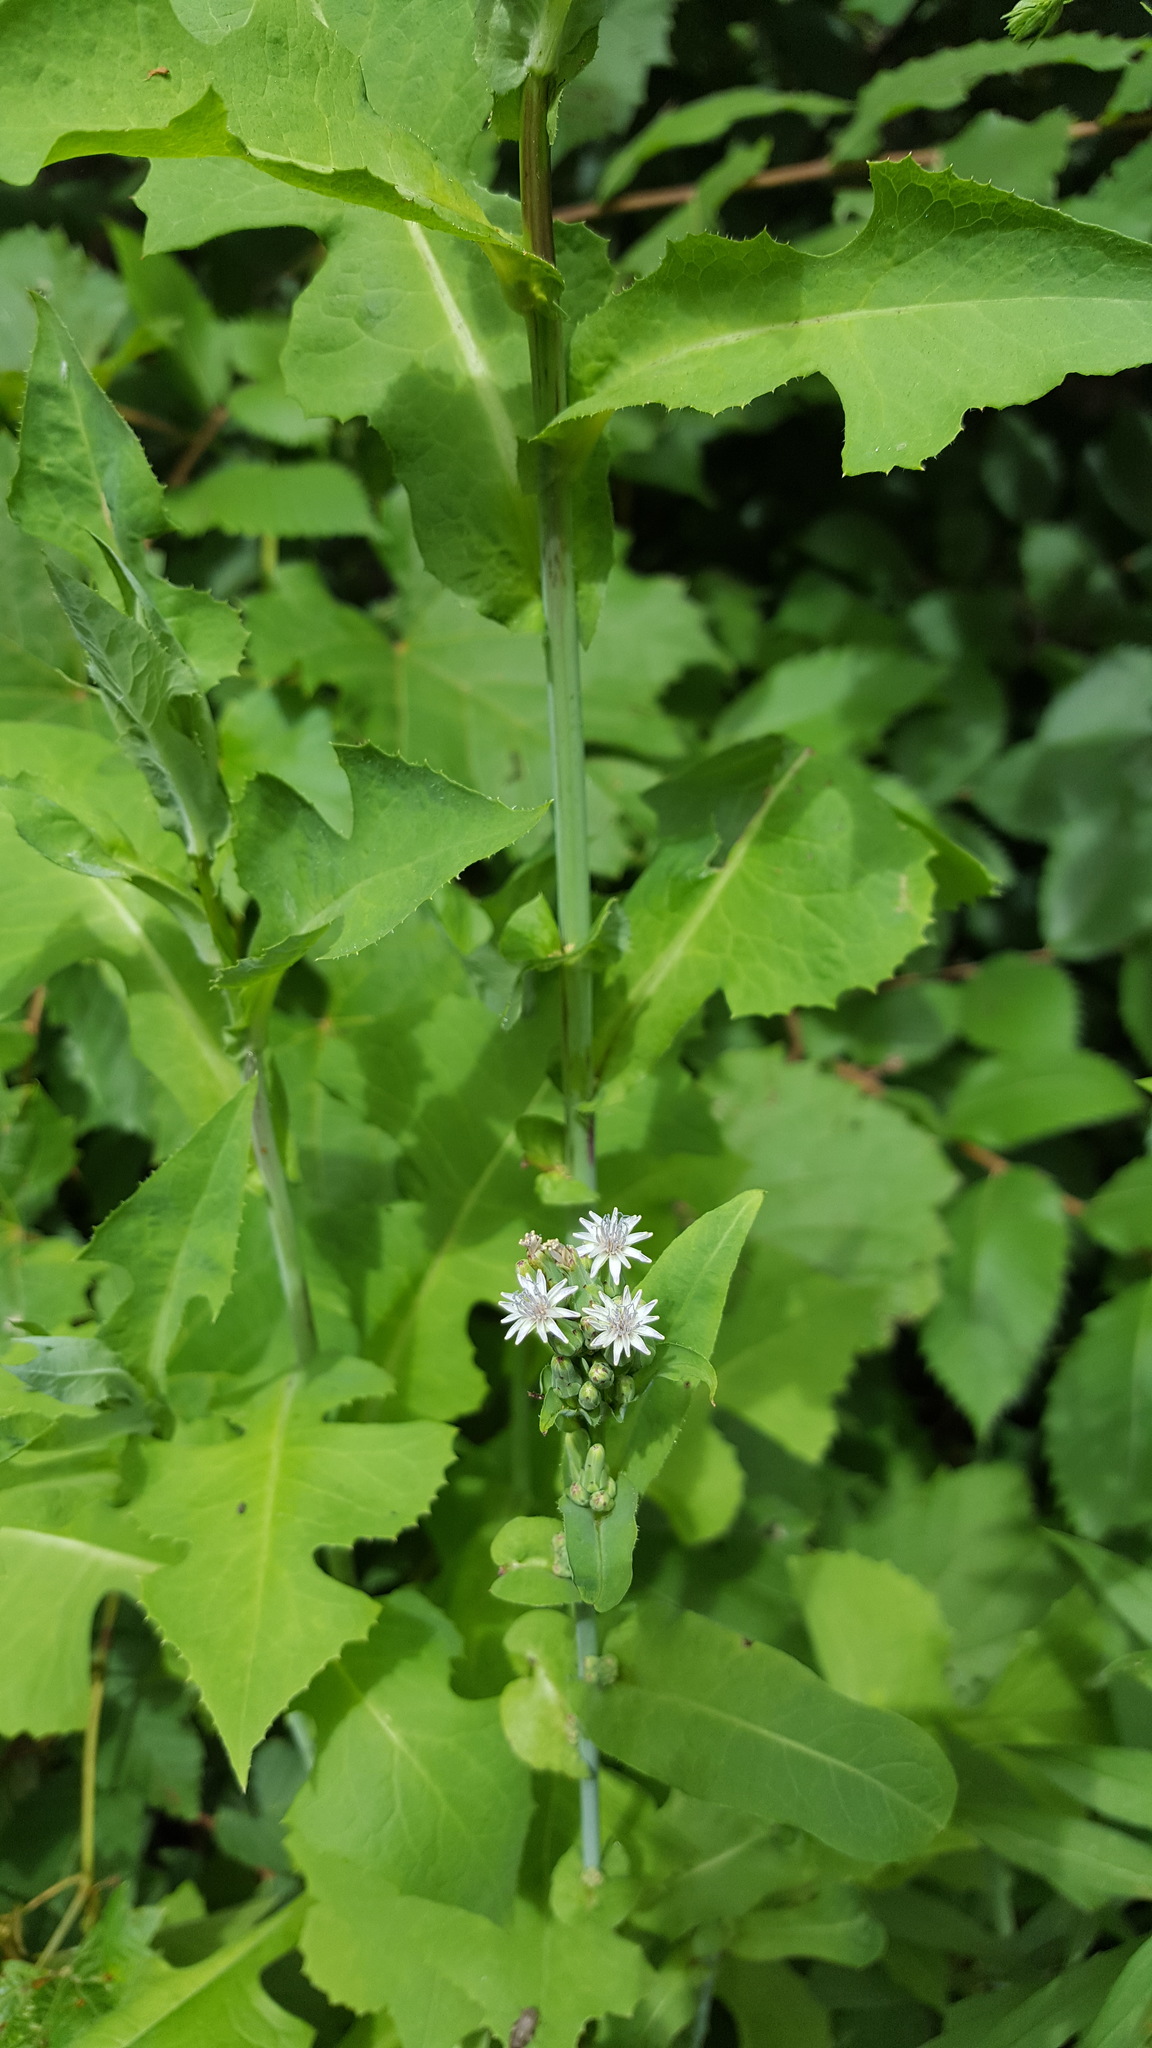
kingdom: Plantae
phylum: Tracheophyta
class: Magnoliopsida
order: Asterales
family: Asteraceae
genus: Lactuca
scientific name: Lactuca biennis
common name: Blue wood lettuce
